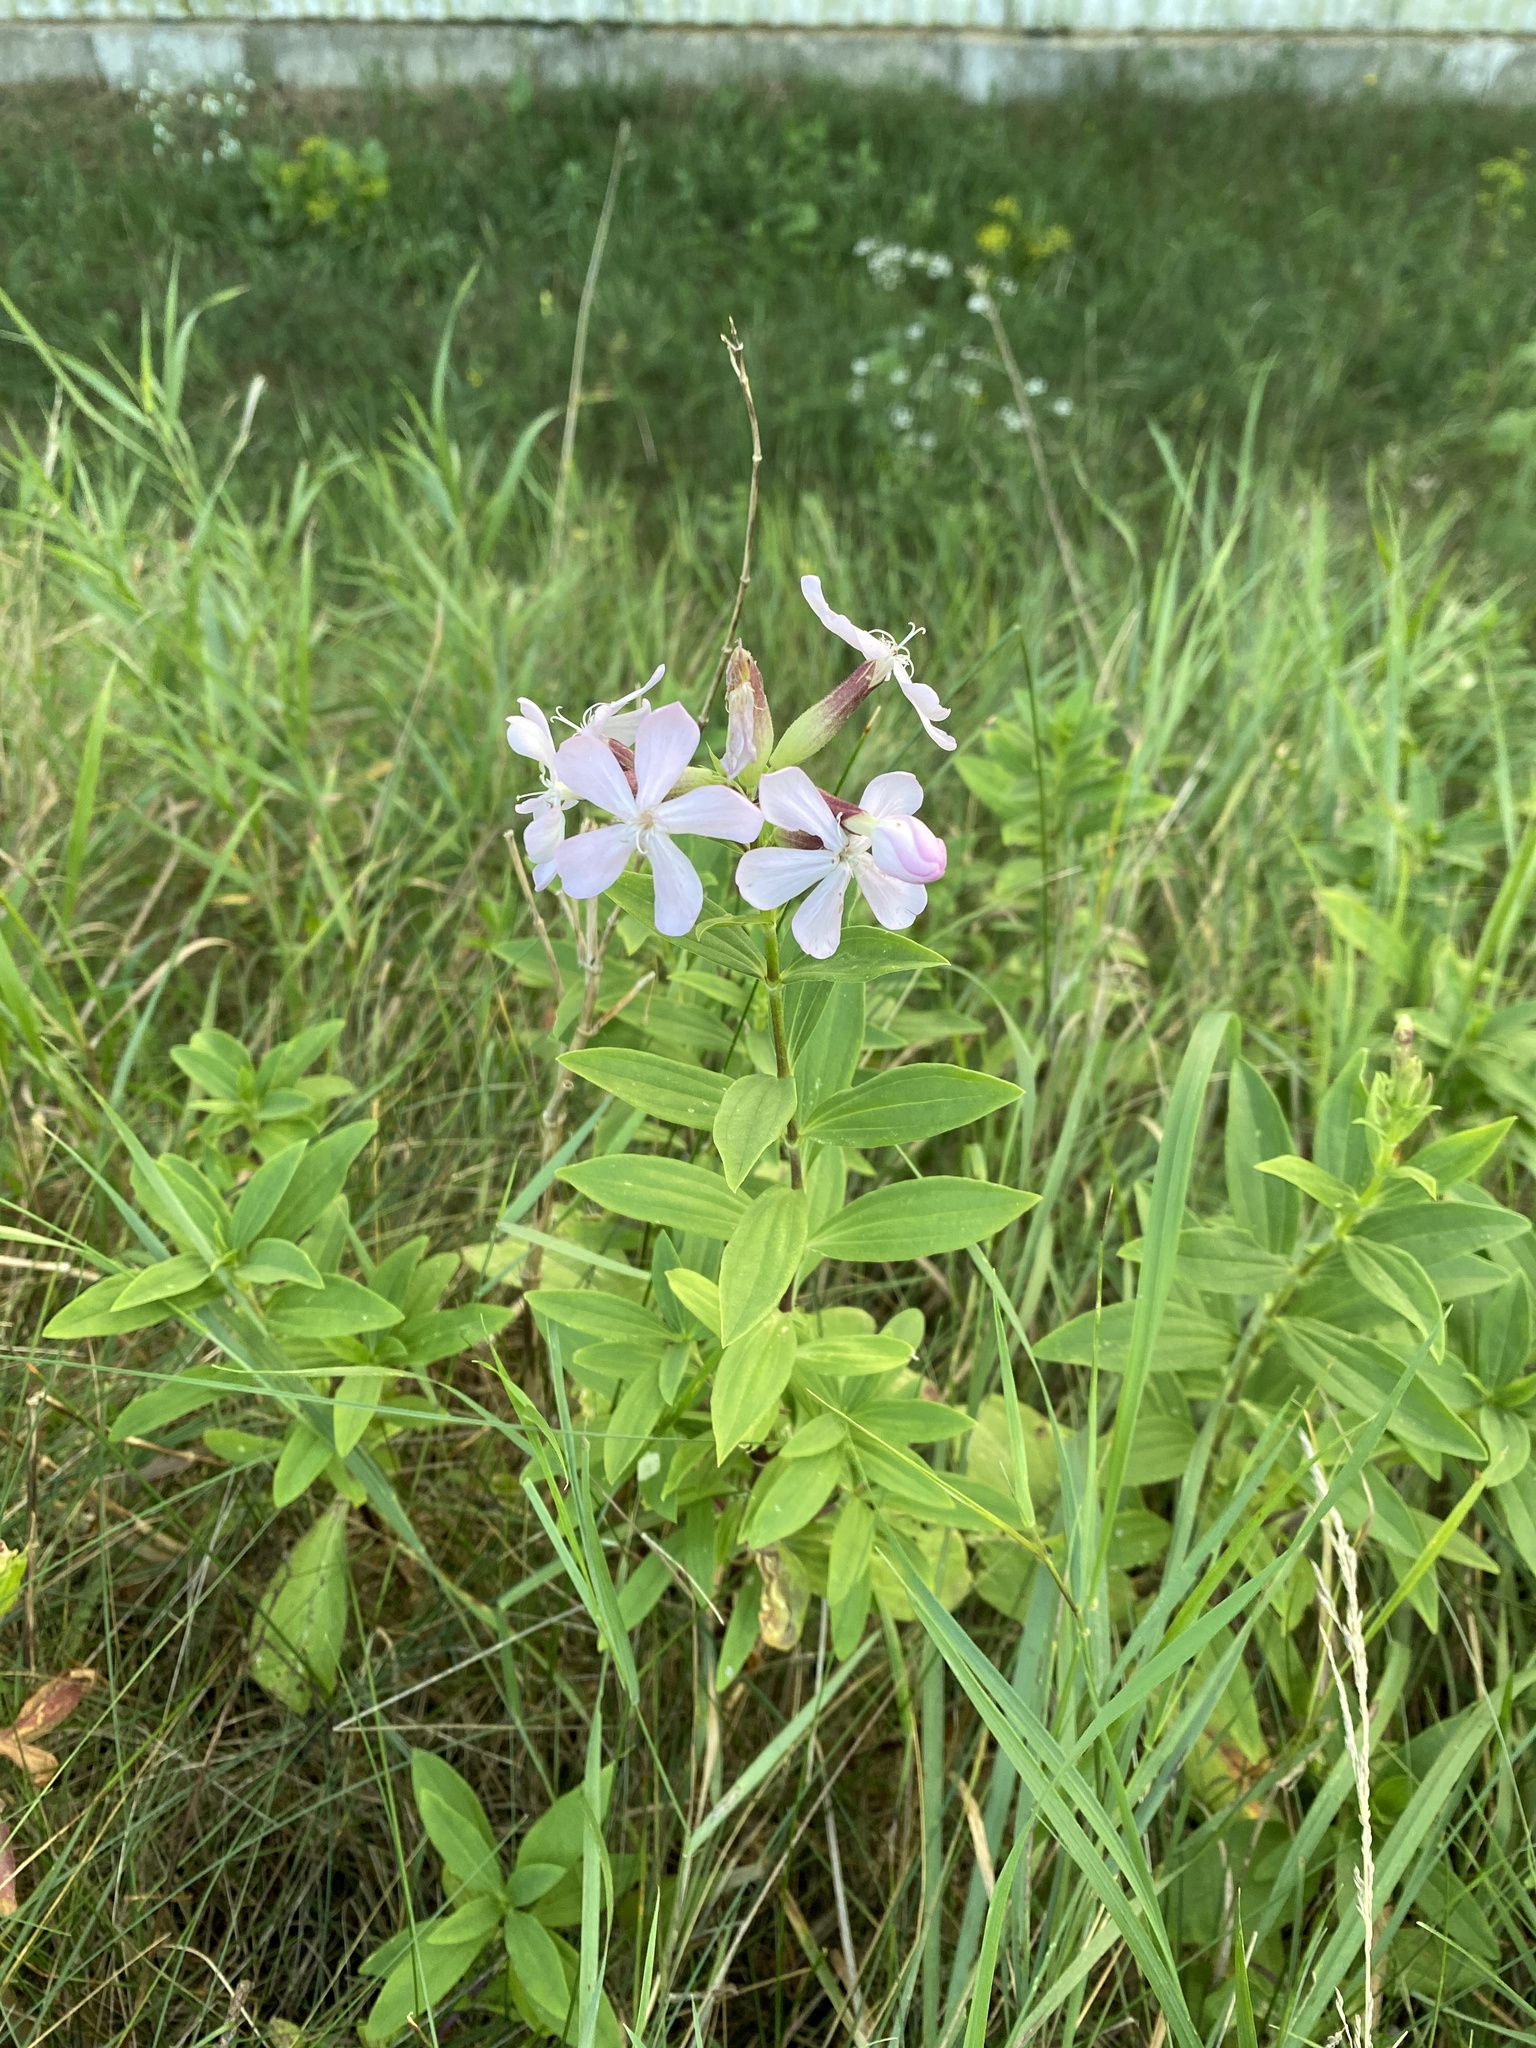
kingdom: Plantae
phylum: Tracheophyta
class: Magnoliopsida
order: Caryophyllales
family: Caryophyllaceae
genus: Saponaria
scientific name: Saponaria officinalis
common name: Soapwort
